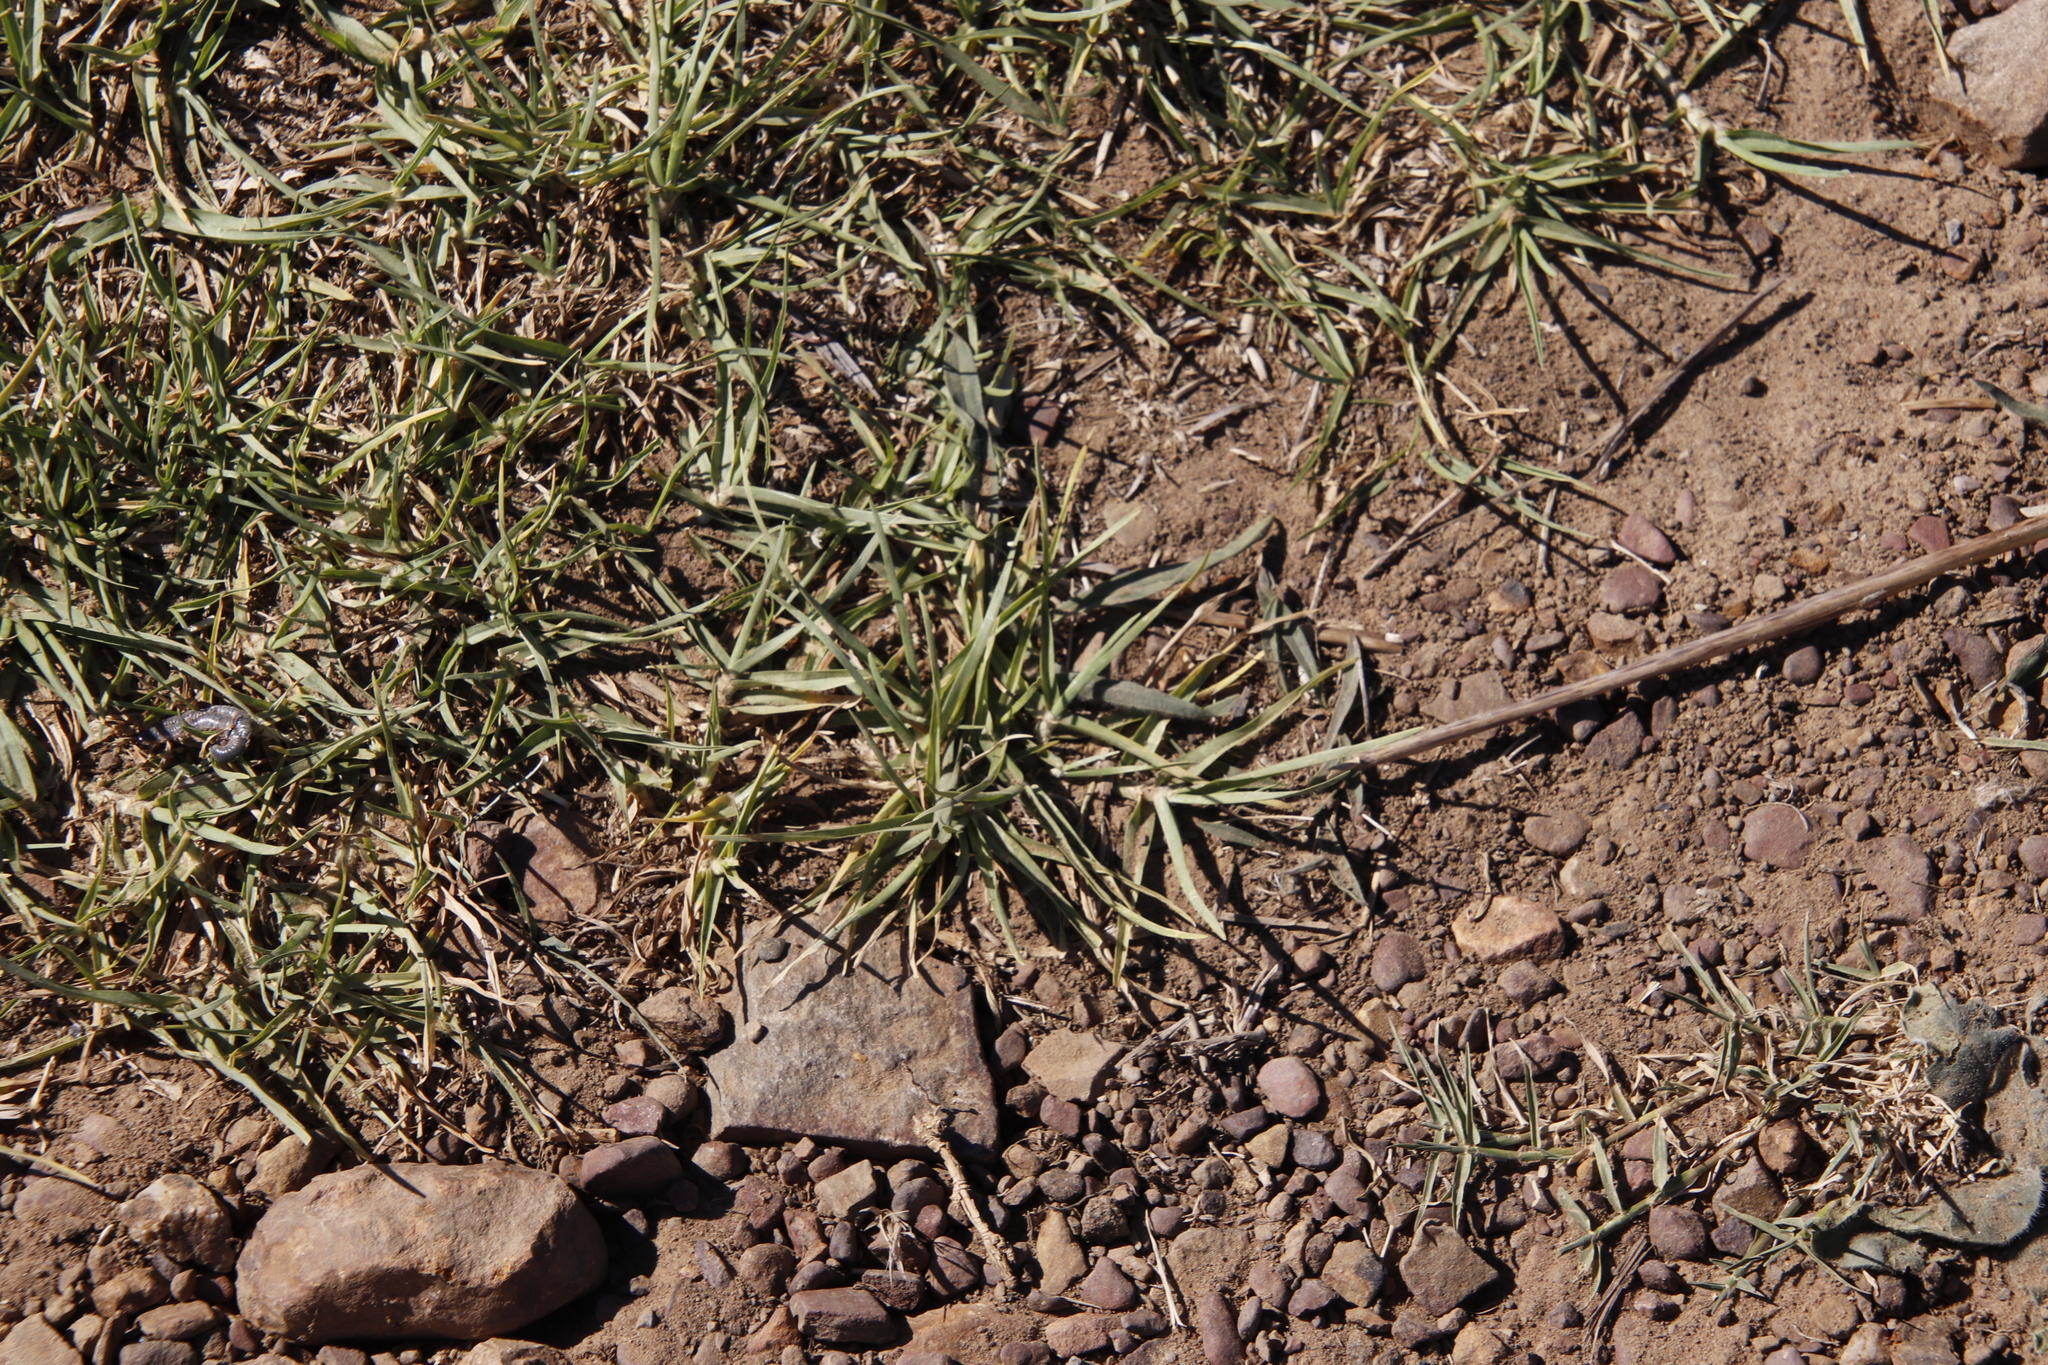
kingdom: Plantae
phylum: Tracheophyta
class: Liliopsida
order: Poales
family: Poaceae
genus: Cenchrus
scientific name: Cenchrus clandestinus
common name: Kikuyugrass
